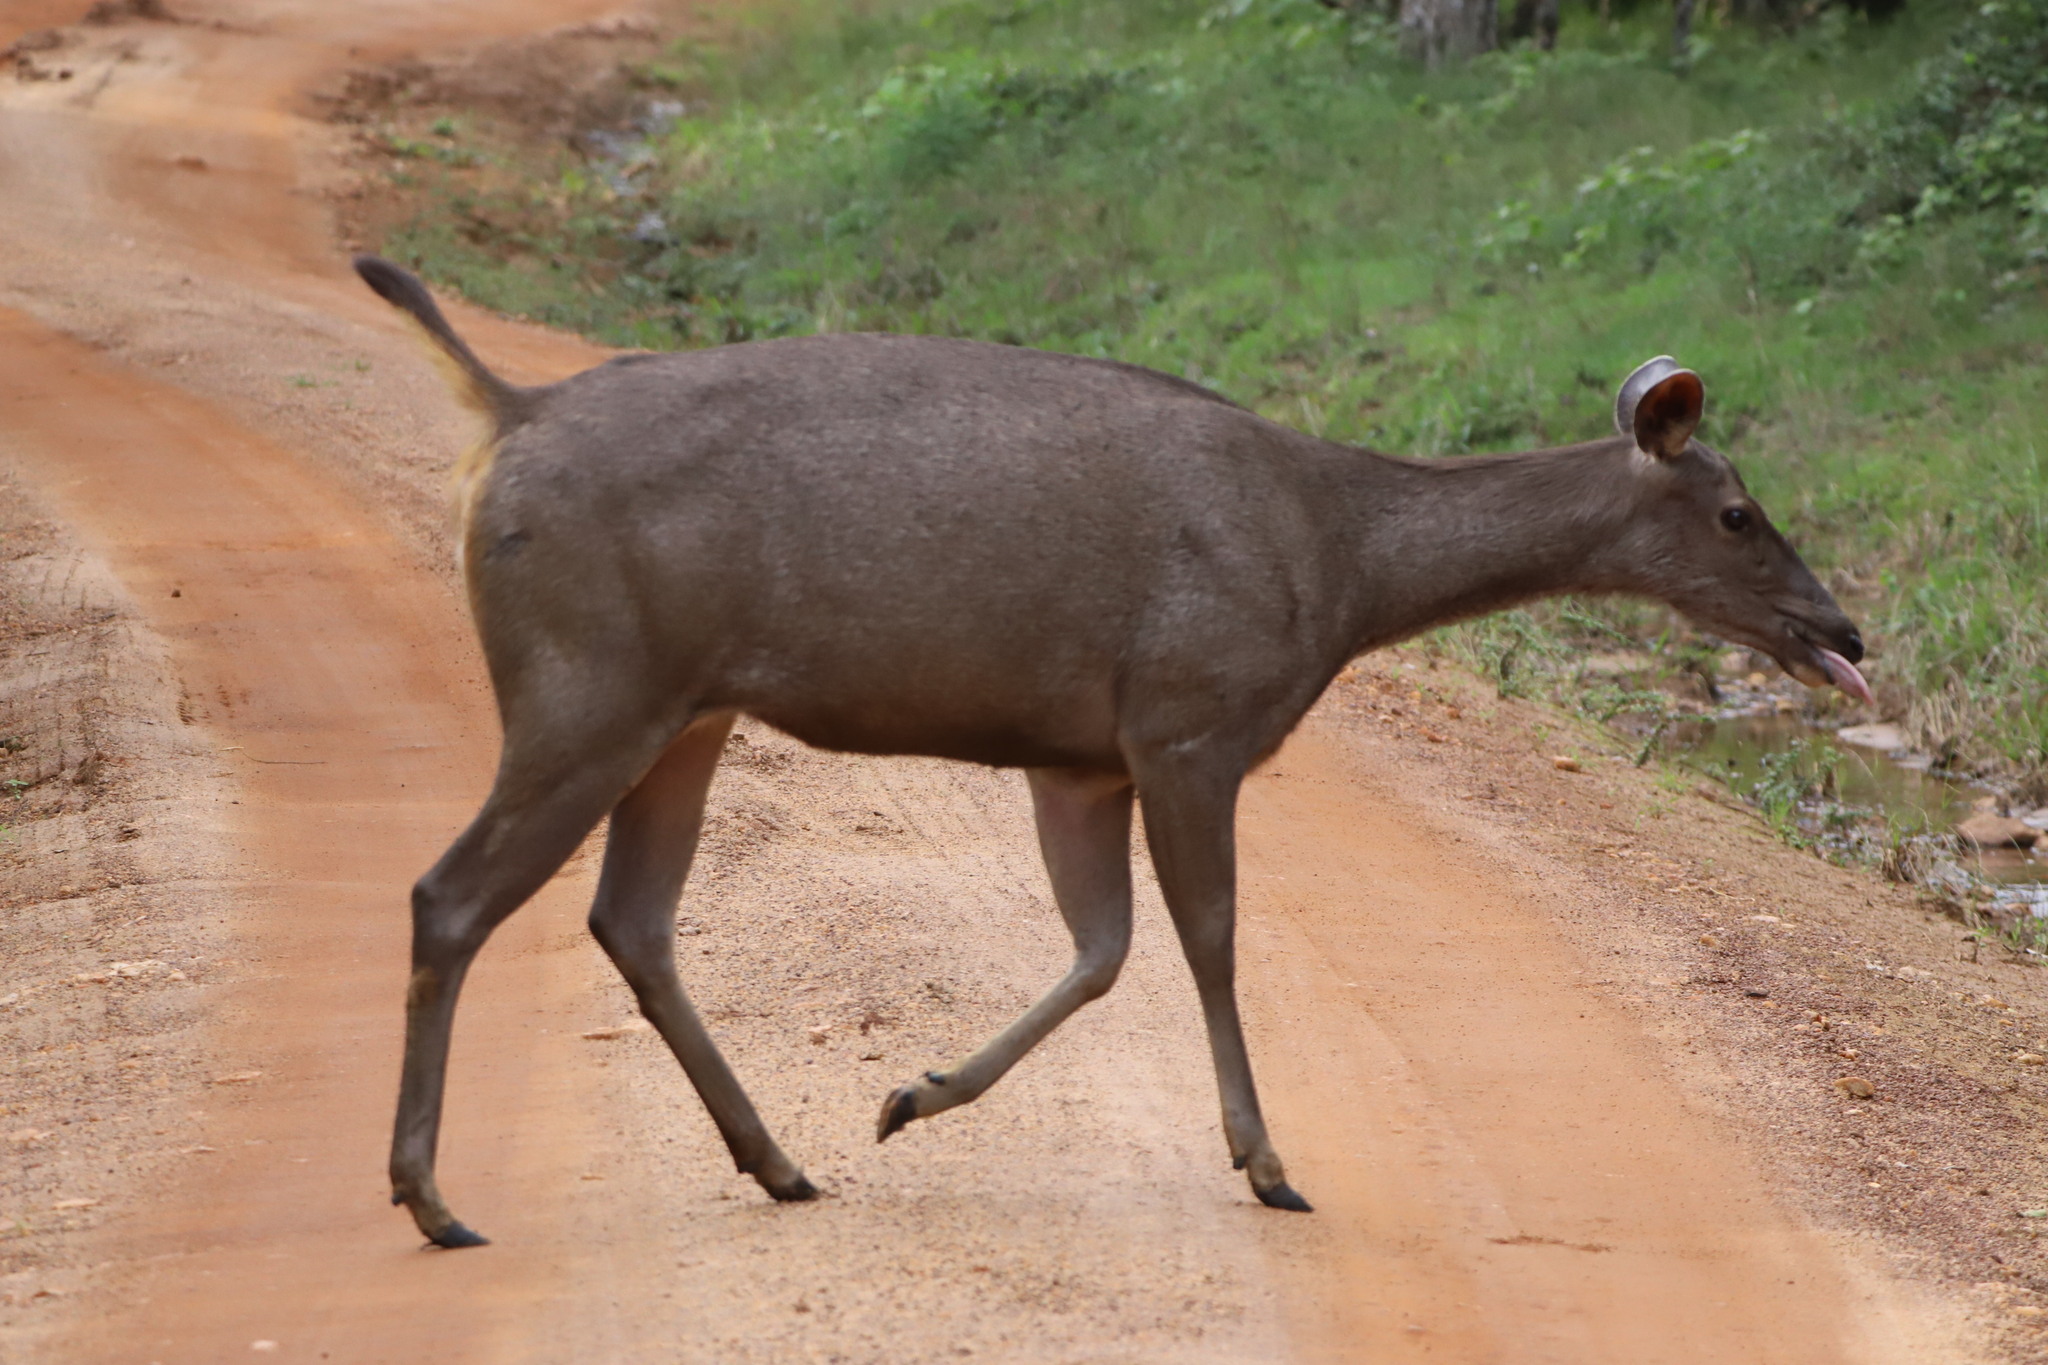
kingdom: Animalia
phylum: Chordata
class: Mammalia
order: Artiodactyla
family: Cervidae
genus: Rusa
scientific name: Rusa unicolor
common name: Sambar
